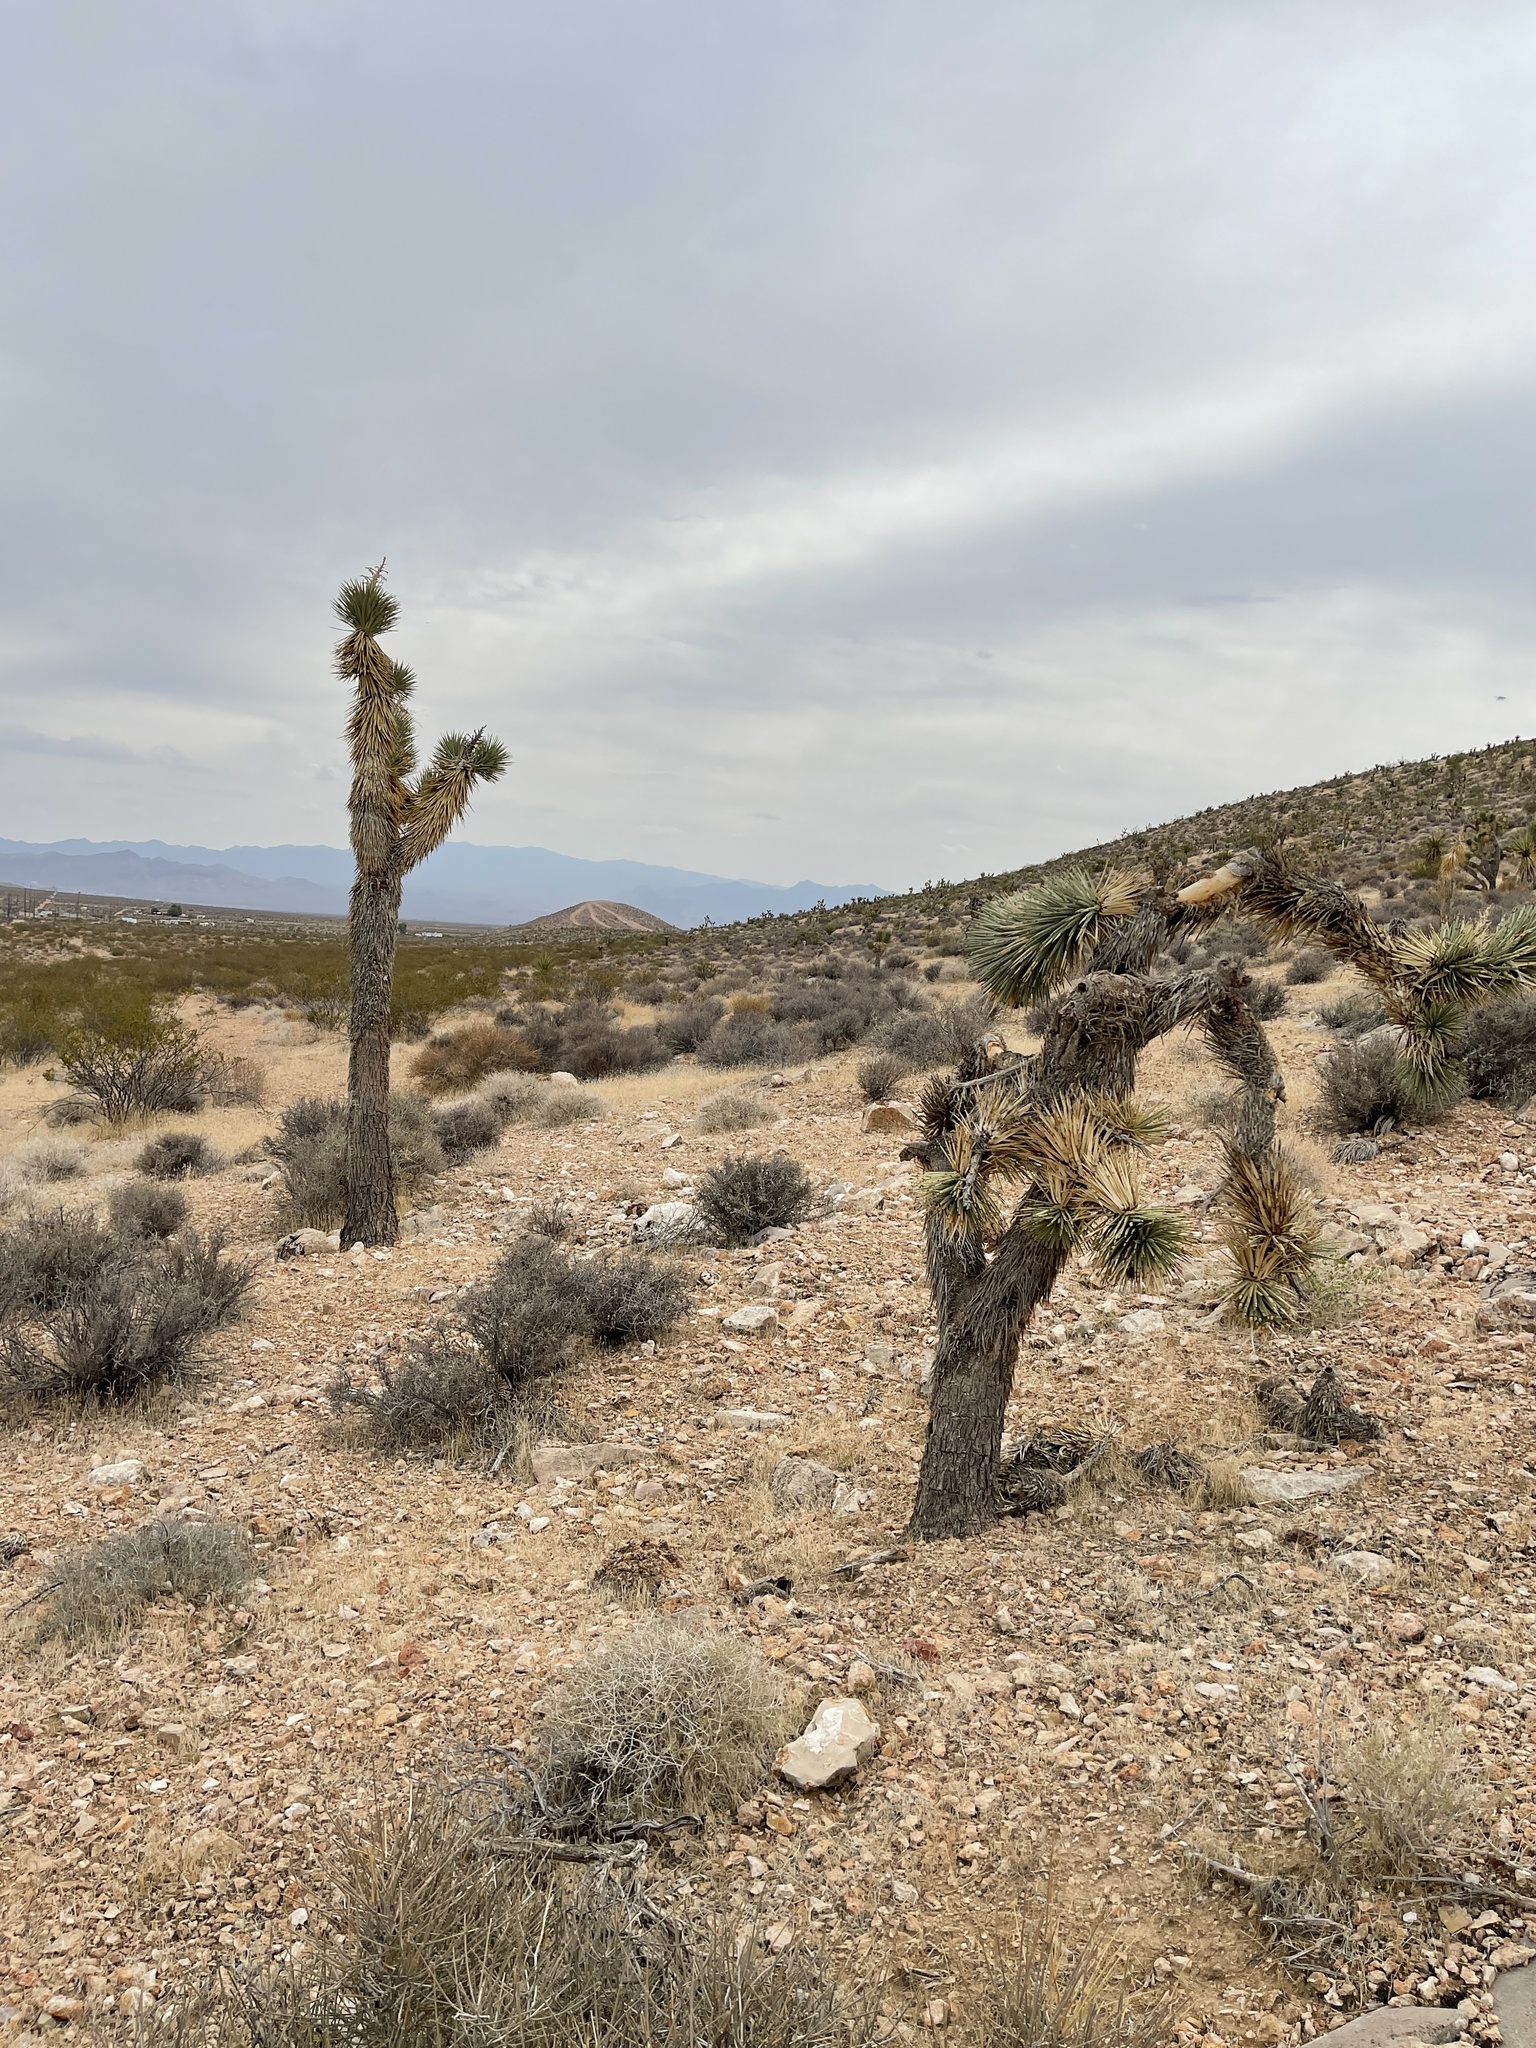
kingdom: Plantae
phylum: Tracheophyta
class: Liliopsida
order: Asparagales
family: Asparagaceae
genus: Yucca
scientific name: Yucca brevifolia
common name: Joshua tree
